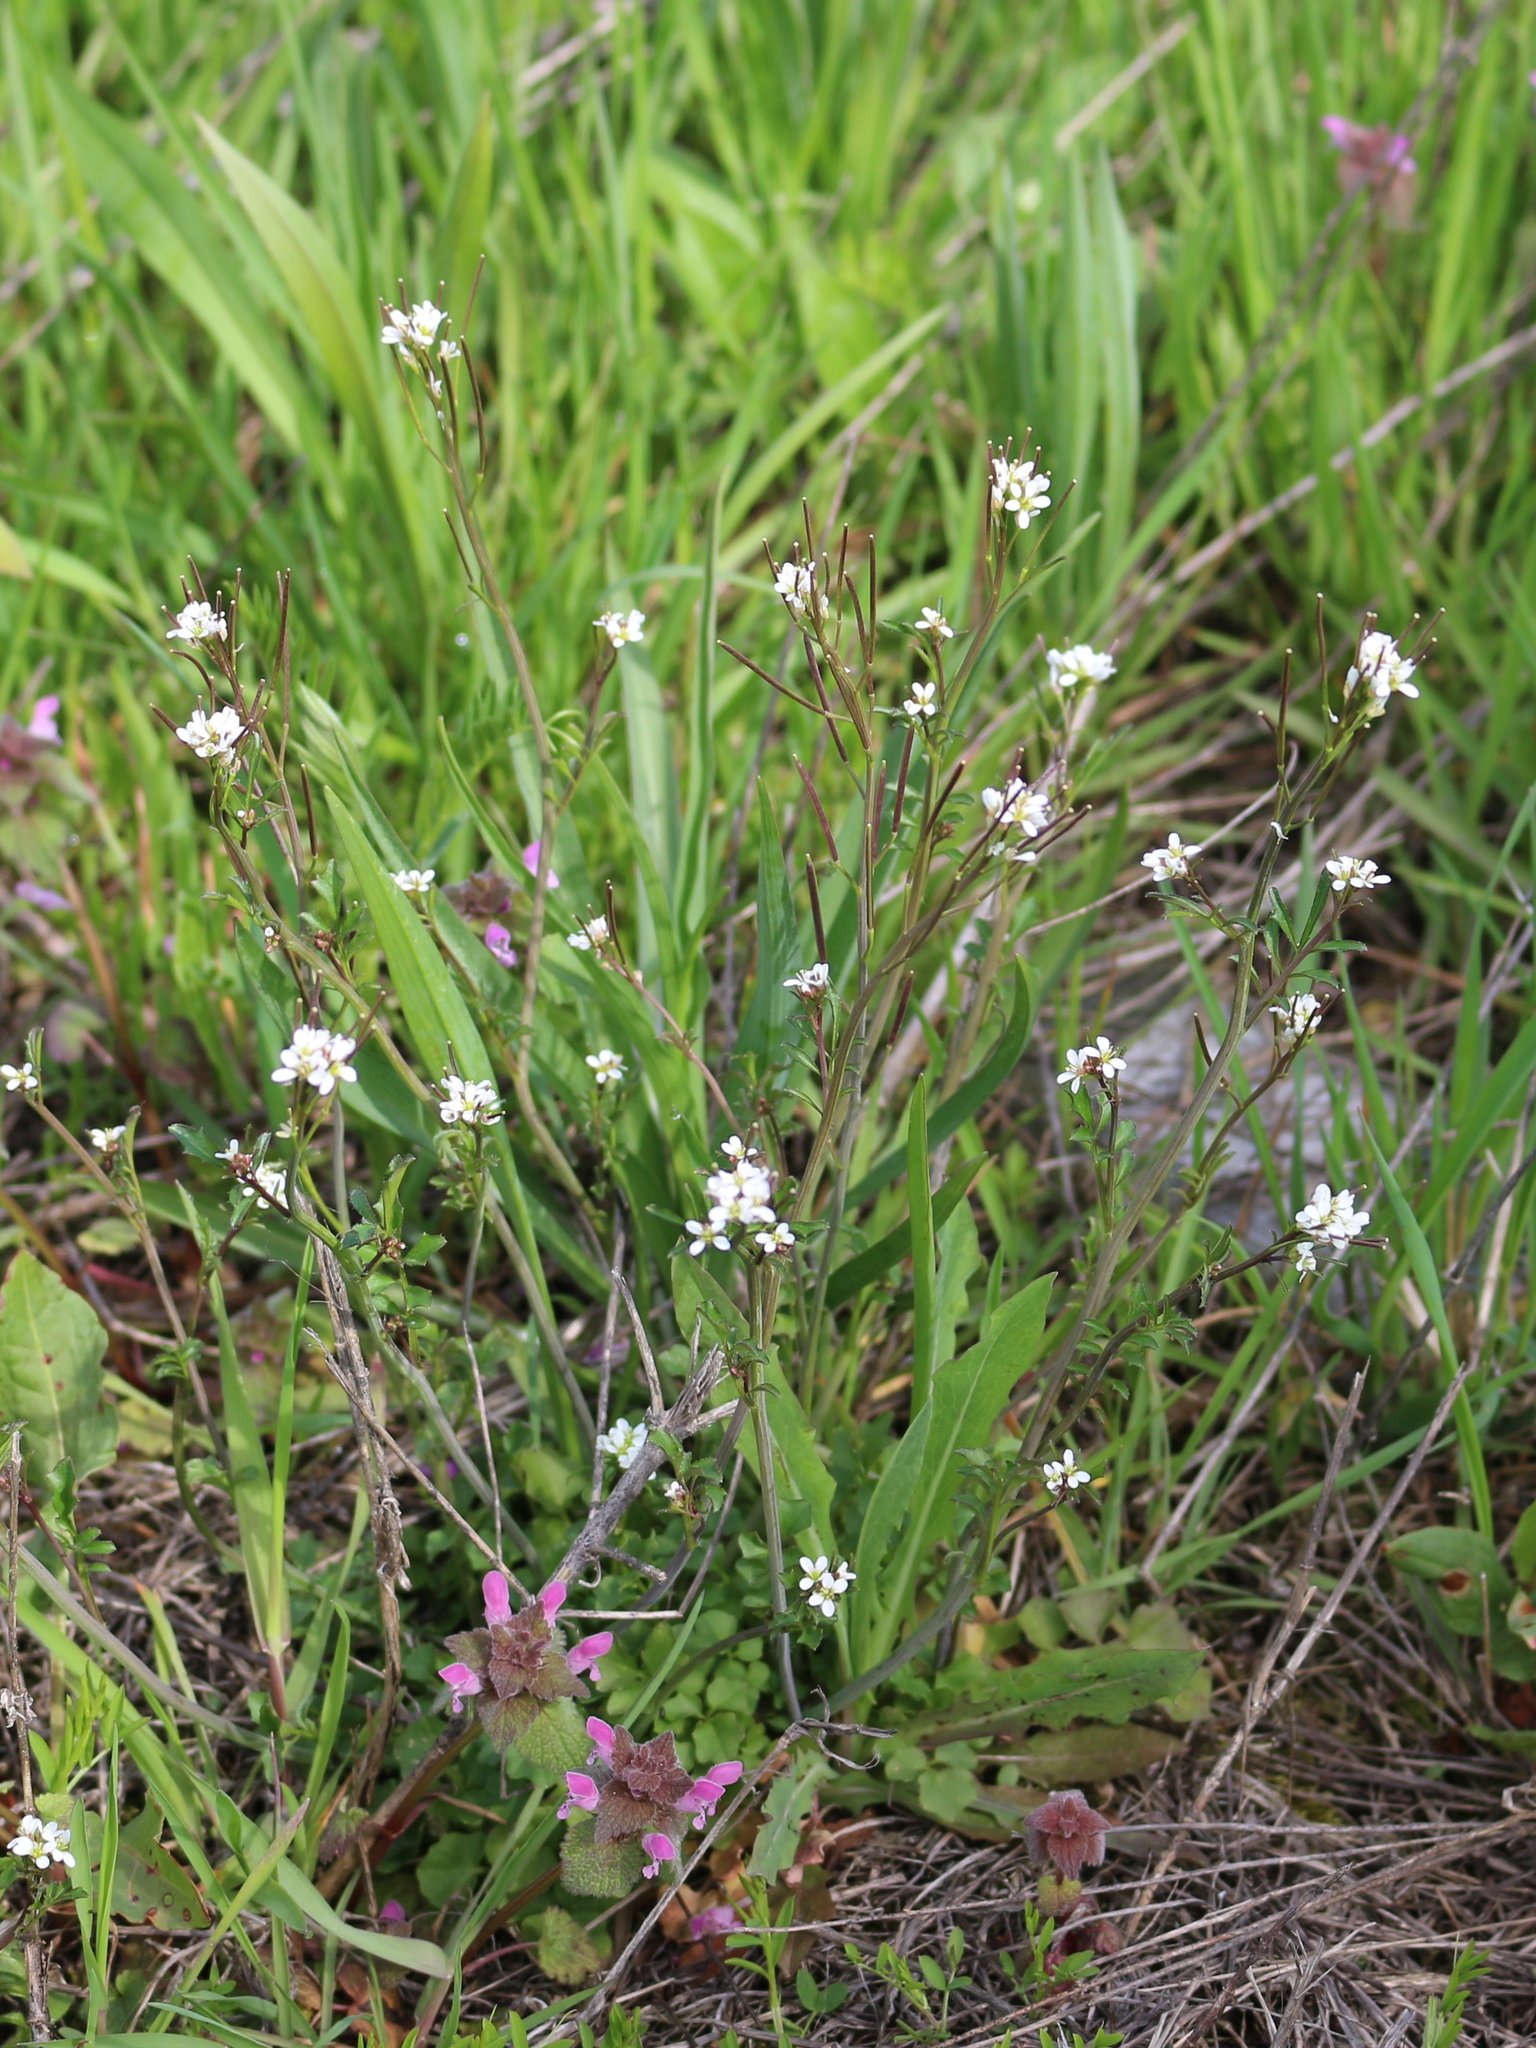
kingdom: Plantae
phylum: Tracheophyta
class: Magnoliopsida
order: Brassicales
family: Brassicaceae
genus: Cardamine
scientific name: Cardamine hirsuta
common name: Hairy bittercress
